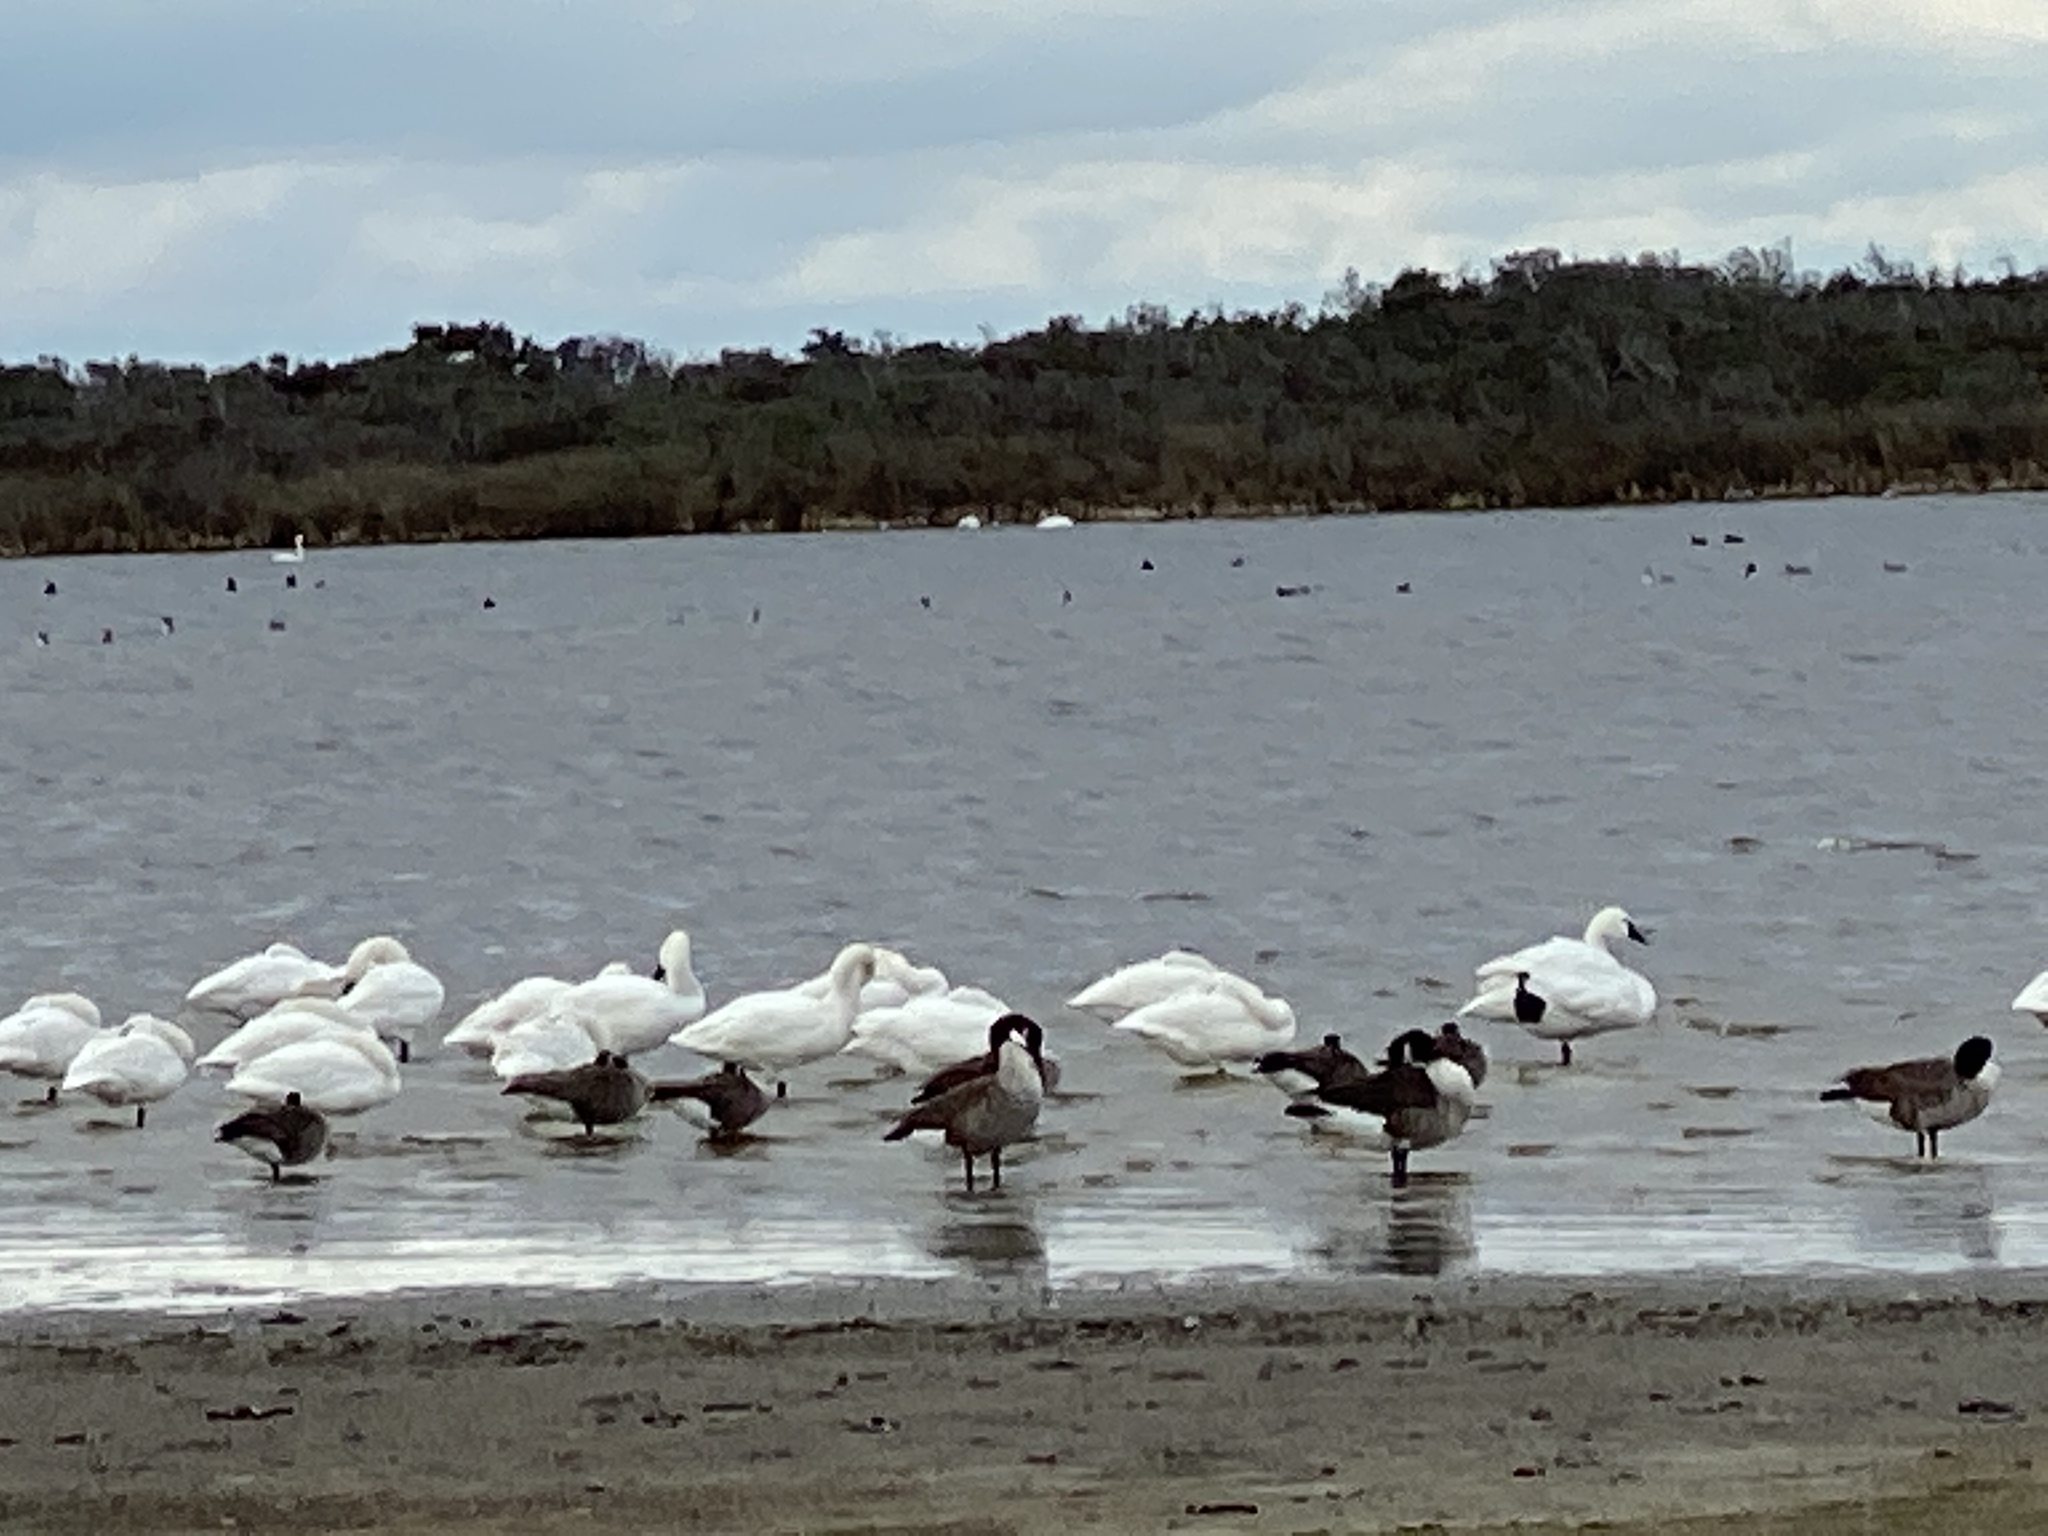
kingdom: Animalia
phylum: Chordata
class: Aves
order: Anseriformes
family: Anatidae
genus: Cygnus
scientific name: Cygnus columbianus
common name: Tundra swan
